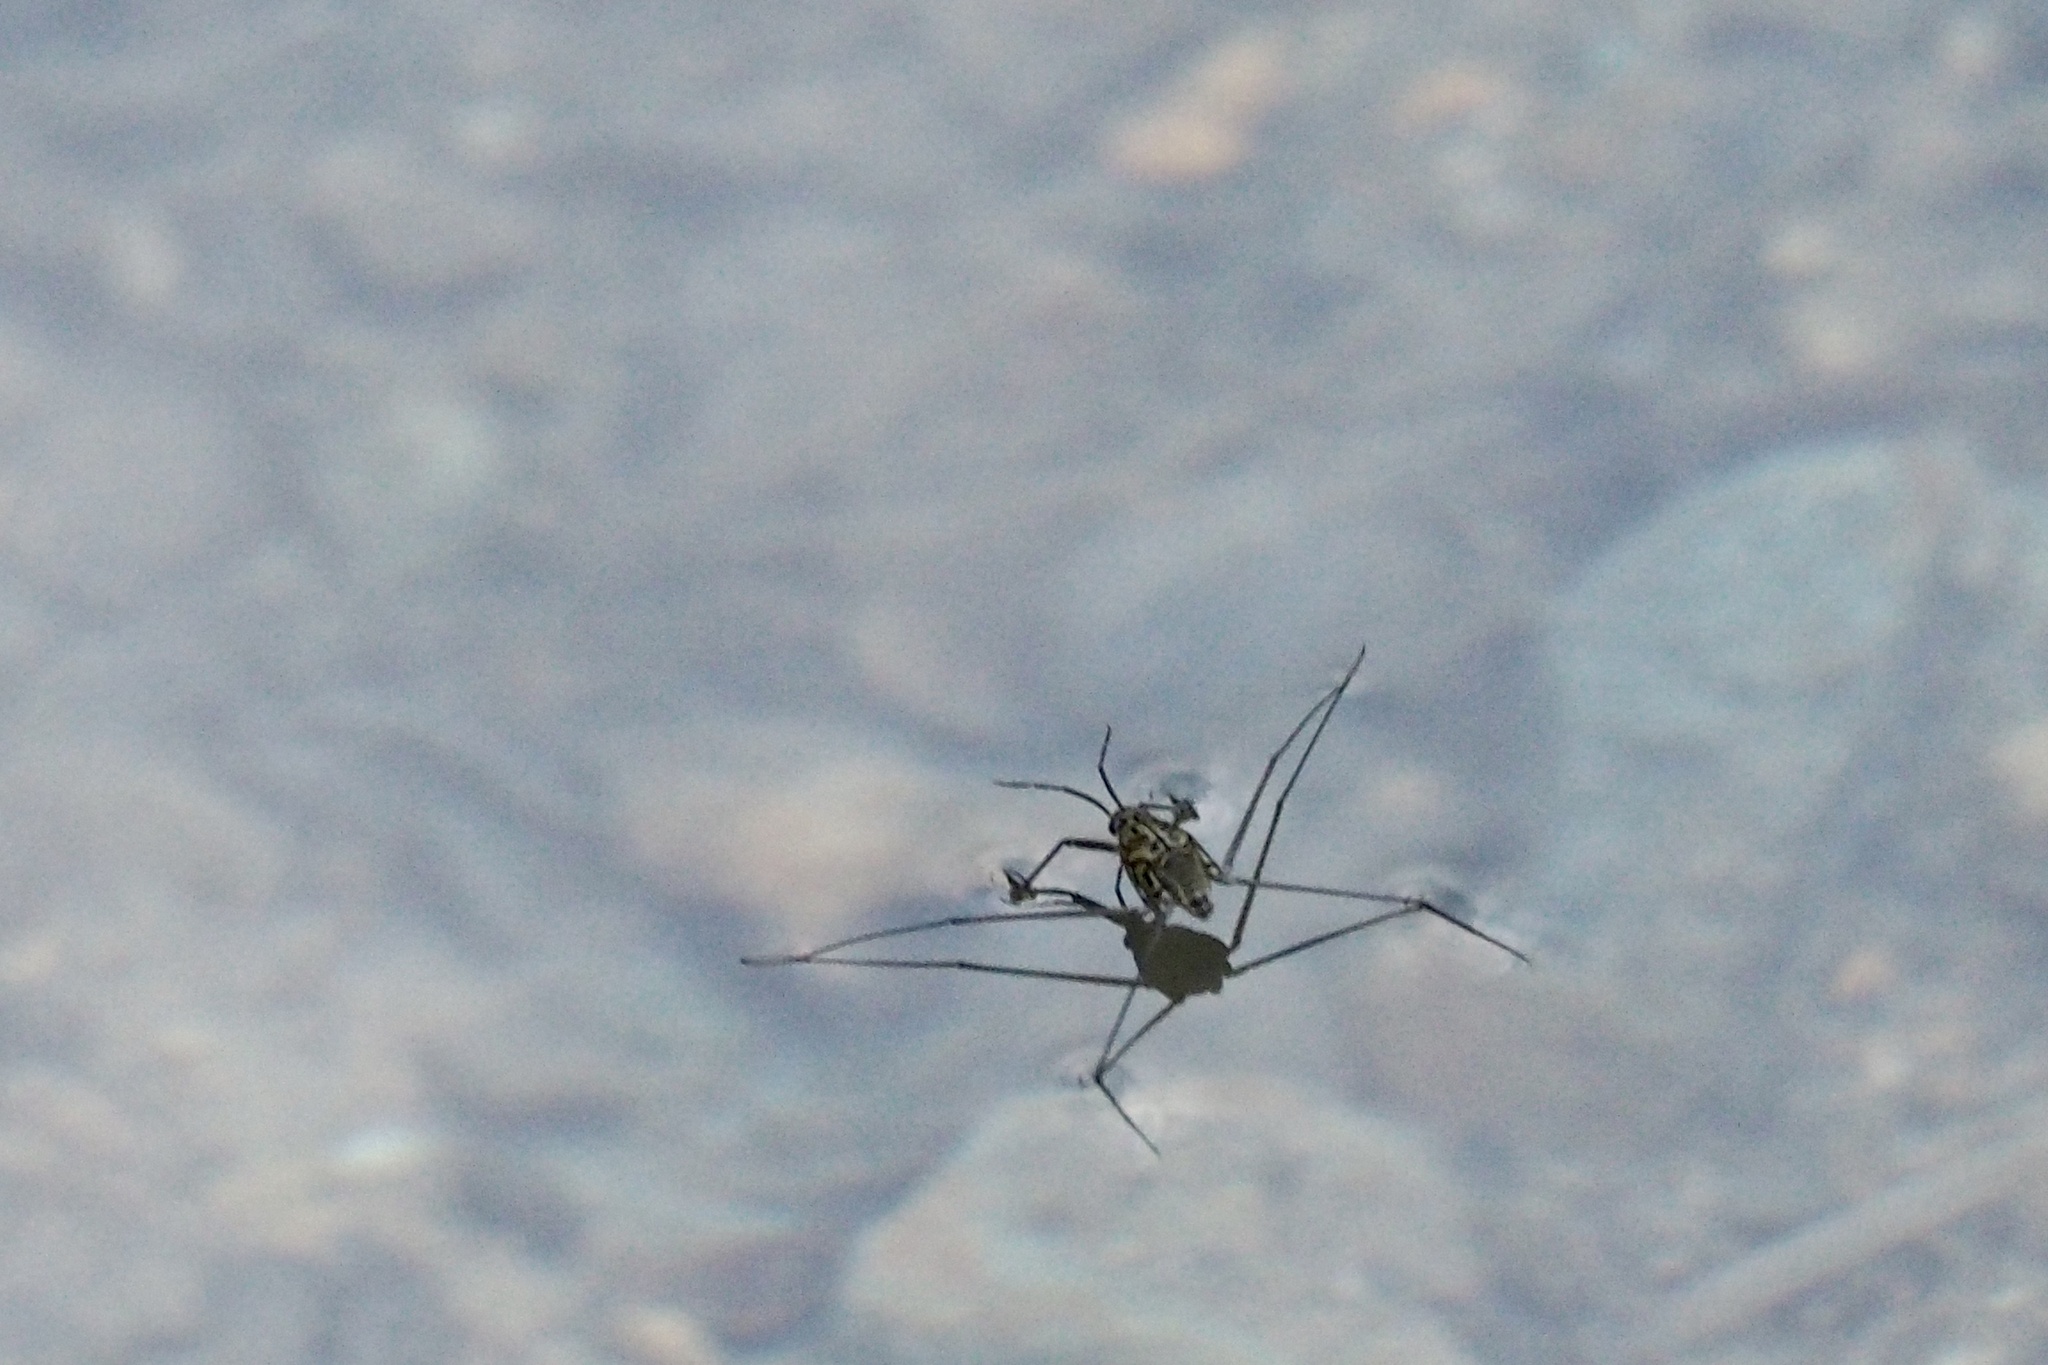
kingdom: Animalia
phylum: Arthropoda
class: Insecta
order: Hemiptera
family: Gerridae
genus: Metrocoris
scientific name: Metrocoris histrio
